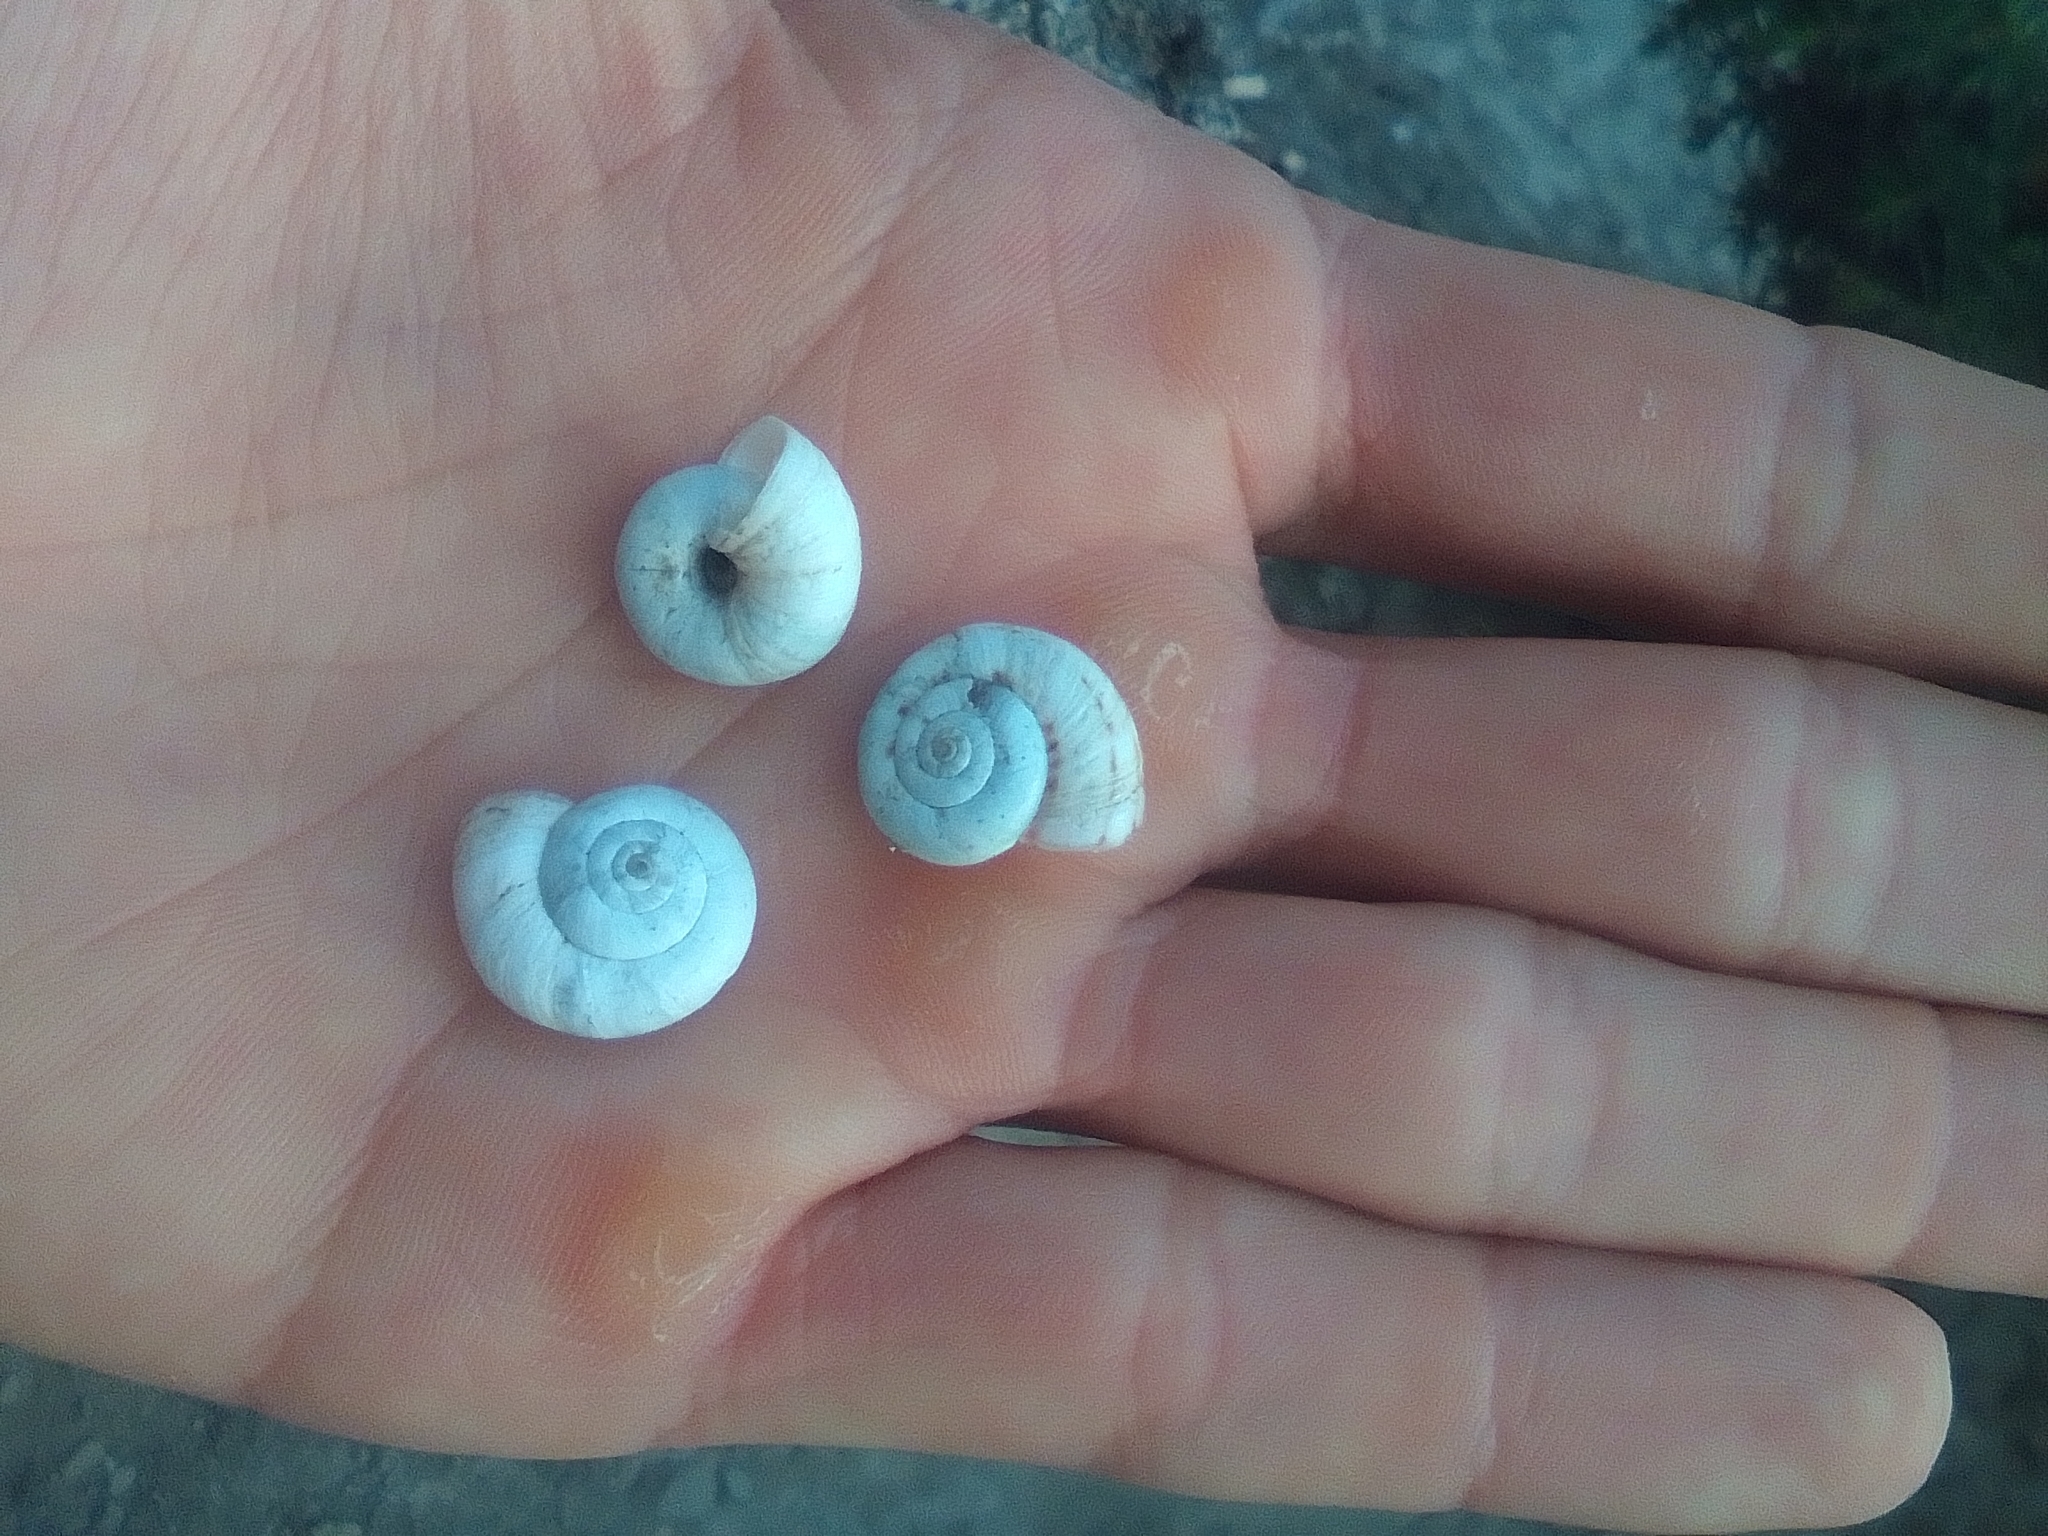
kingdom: Animalia
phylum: Mollusca
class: Gastropoda
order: Stylommatophora
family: Geomitridae
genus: Xeropicta
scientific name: Xeropicta derbentina
